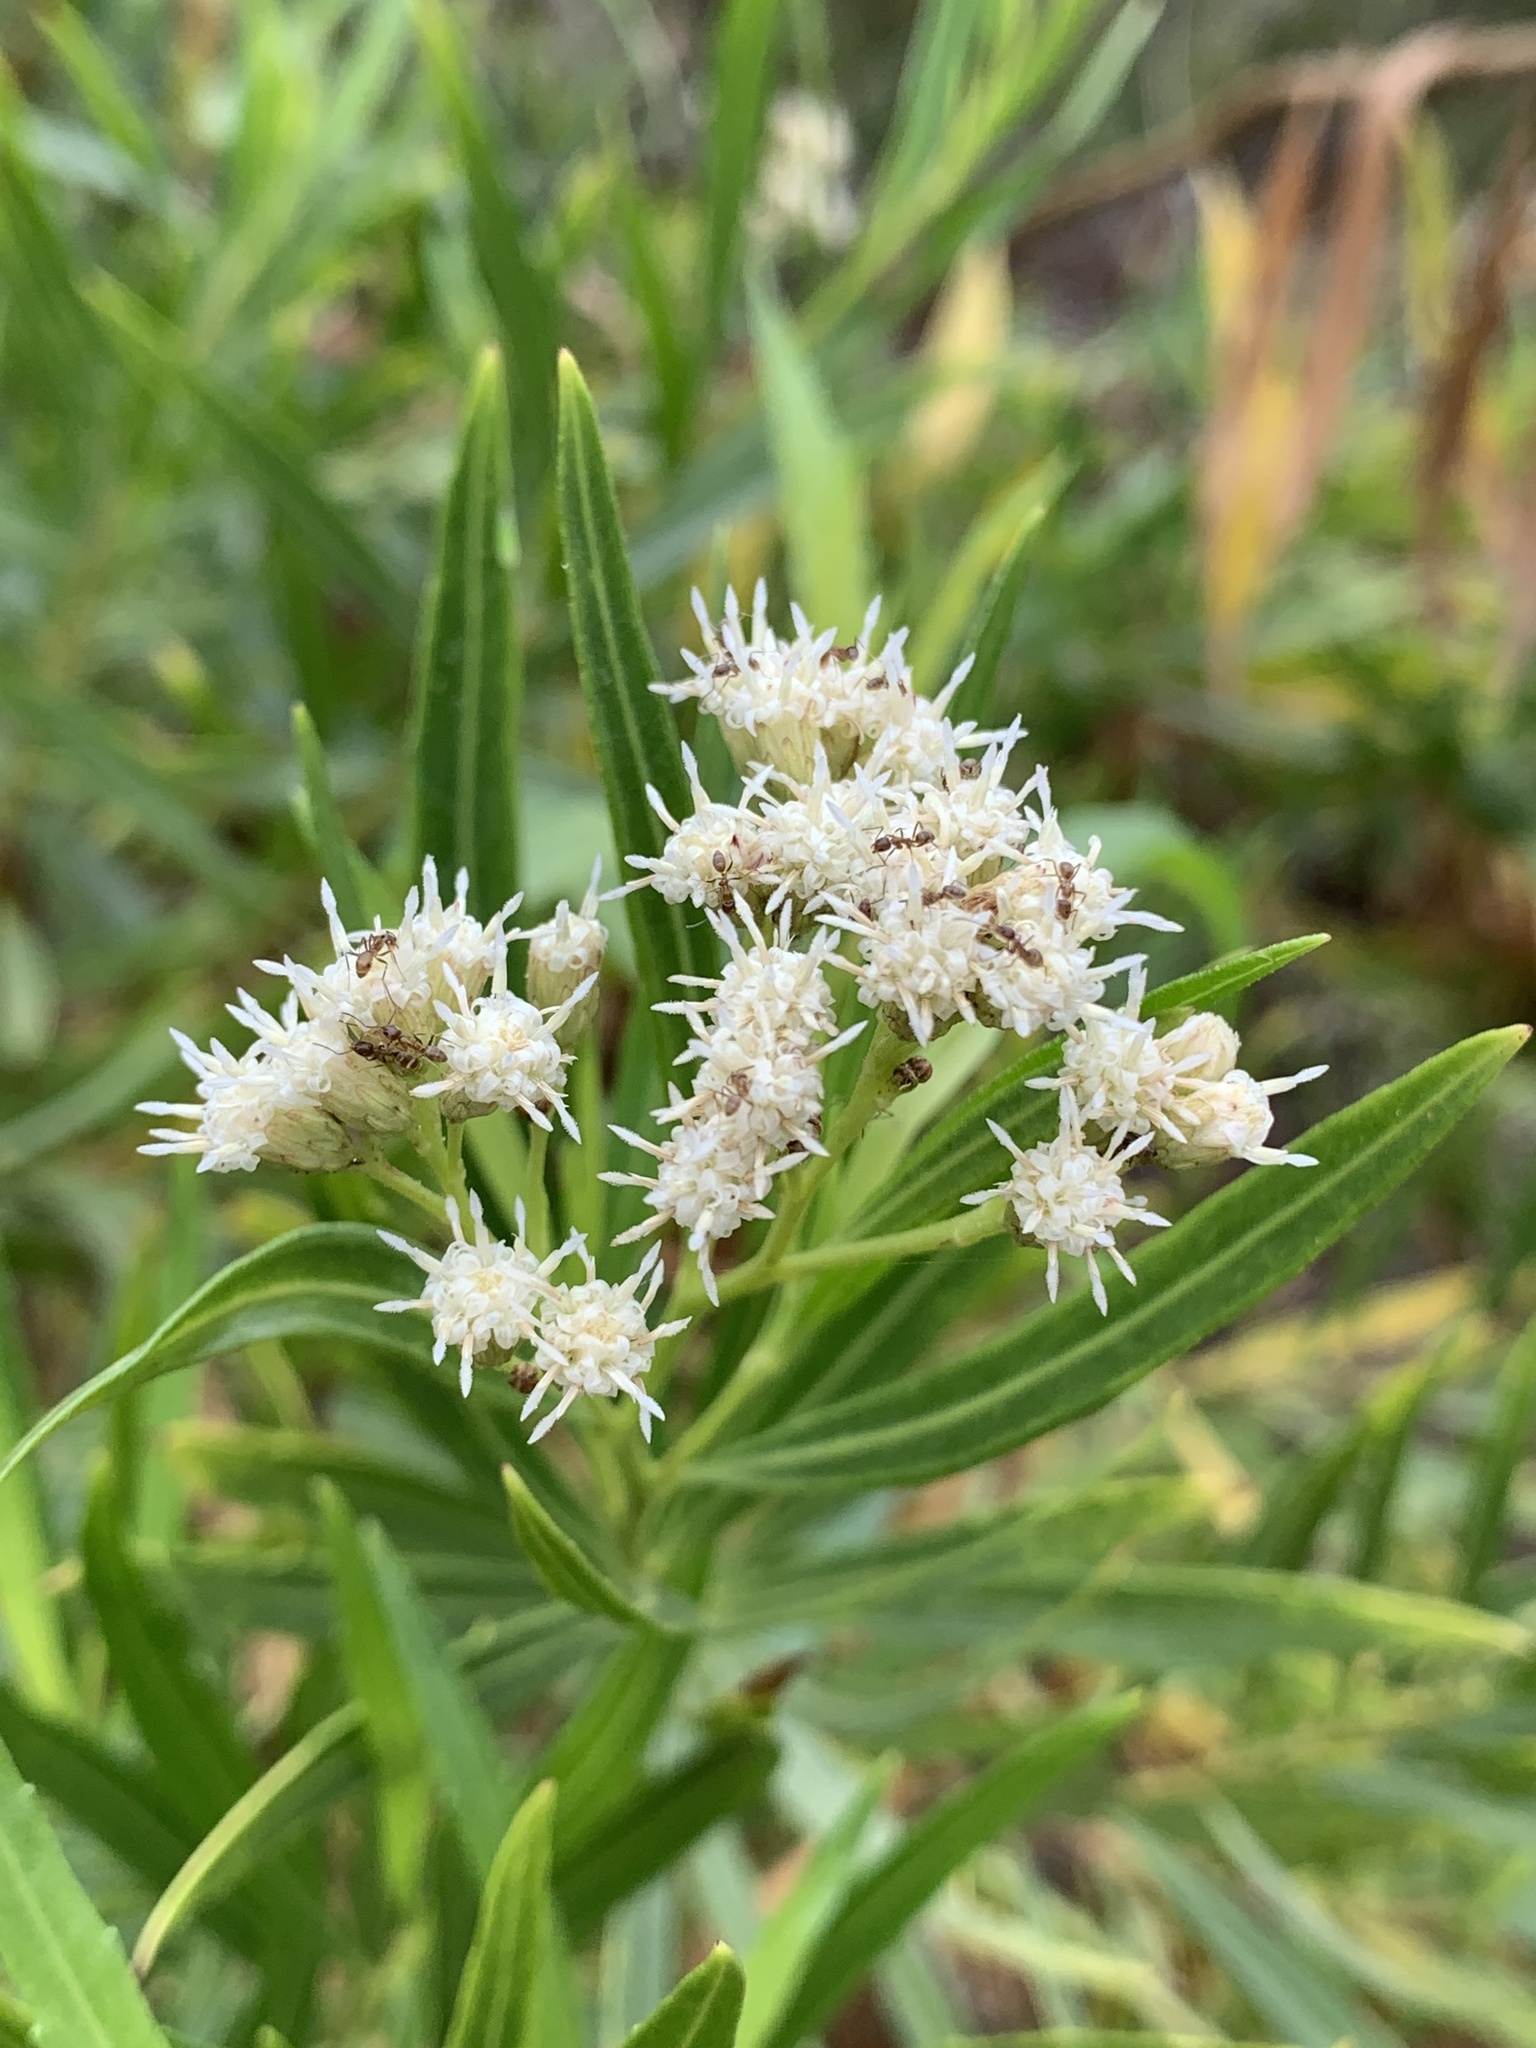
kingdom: Plantae
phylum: Tracheophyta
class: Magnoliopsida
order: Asterales
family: Asteraceae
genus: Baccharis
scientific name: Baccharis salicifolia
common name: Sticky baccharis
